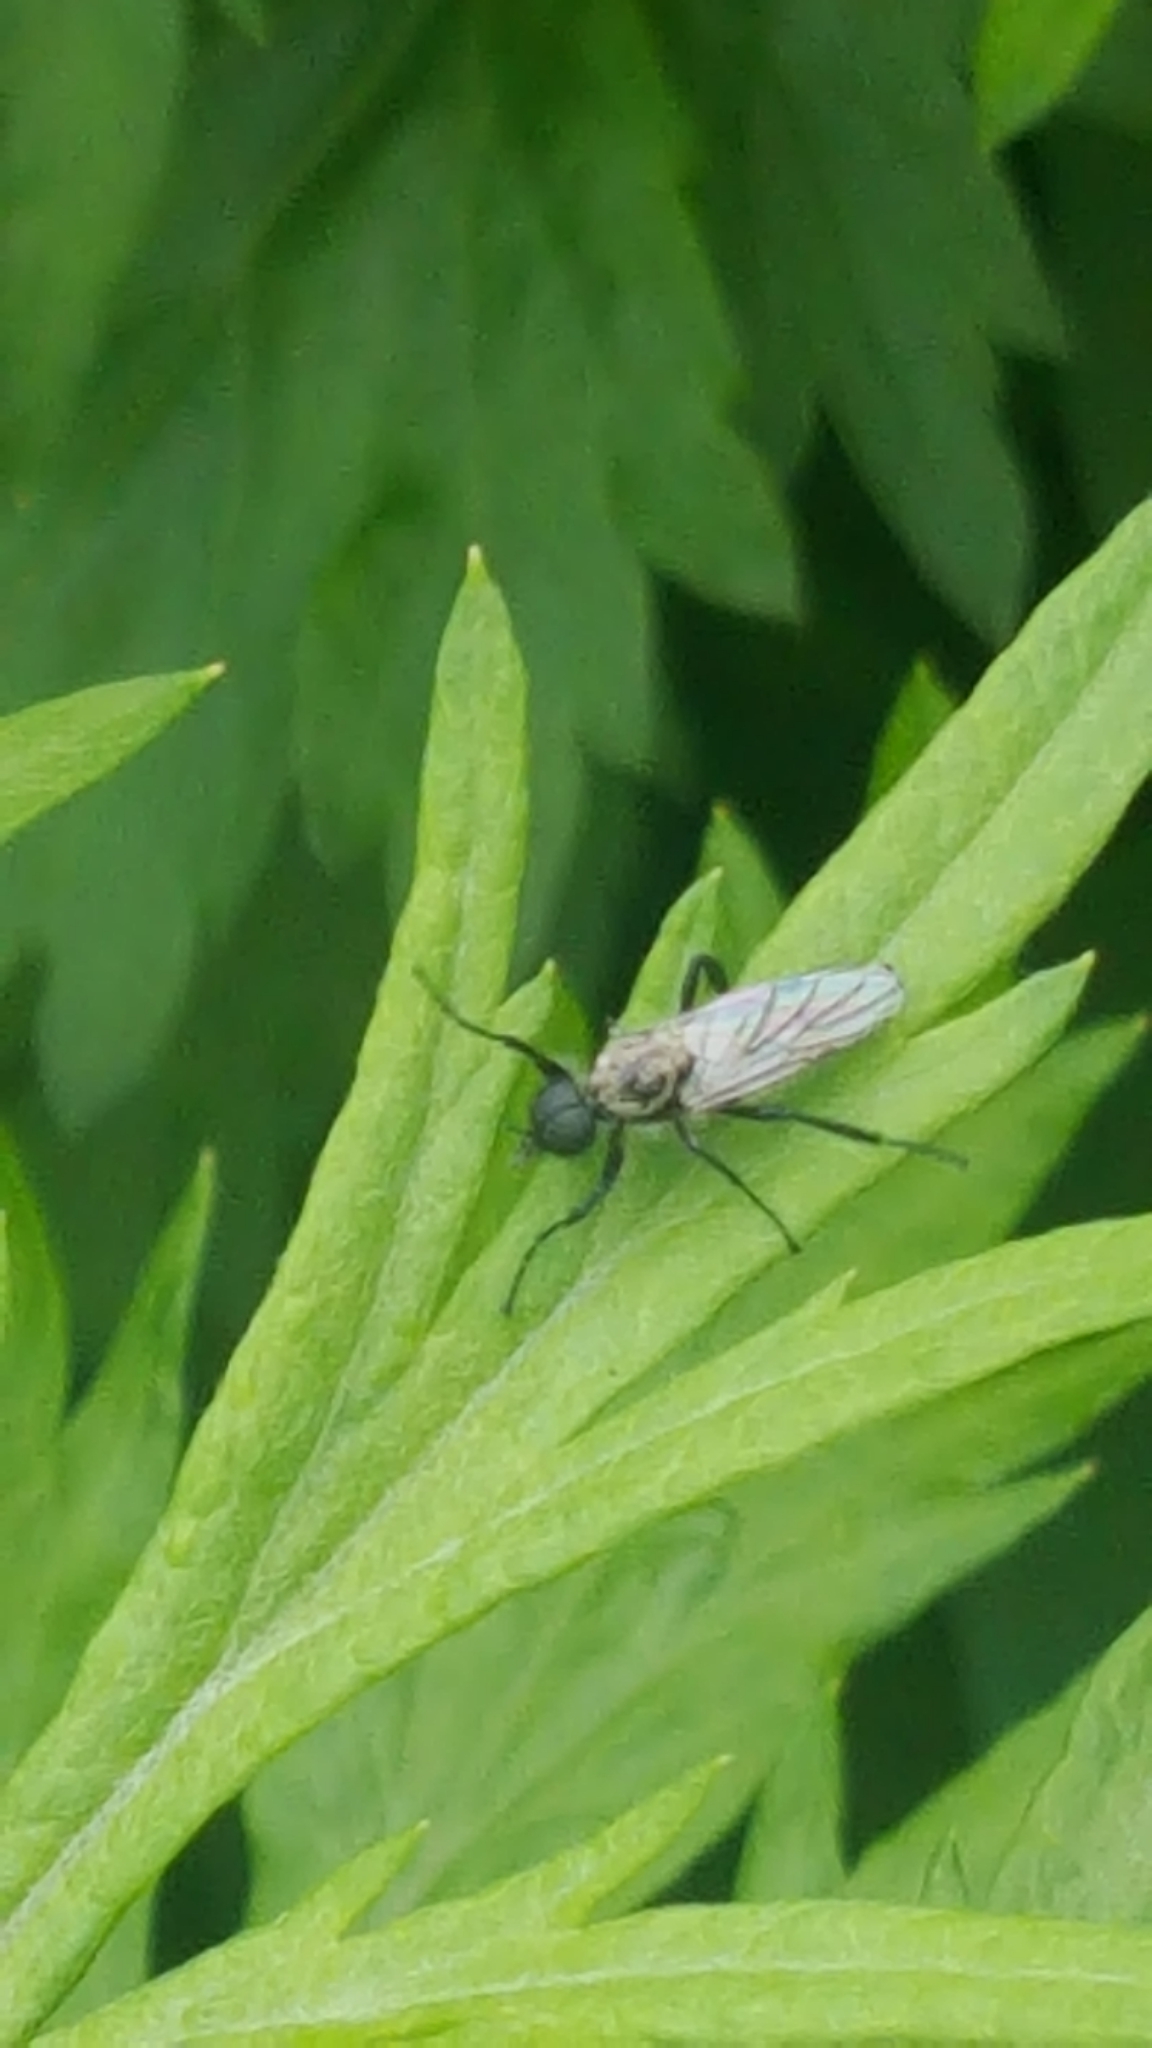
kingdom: Animalia
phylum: Arthropoda
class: Insecta
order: Diptera
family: Bibionidae
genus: Bibio
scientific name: Bibio albipennis
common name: White-winged march fly
